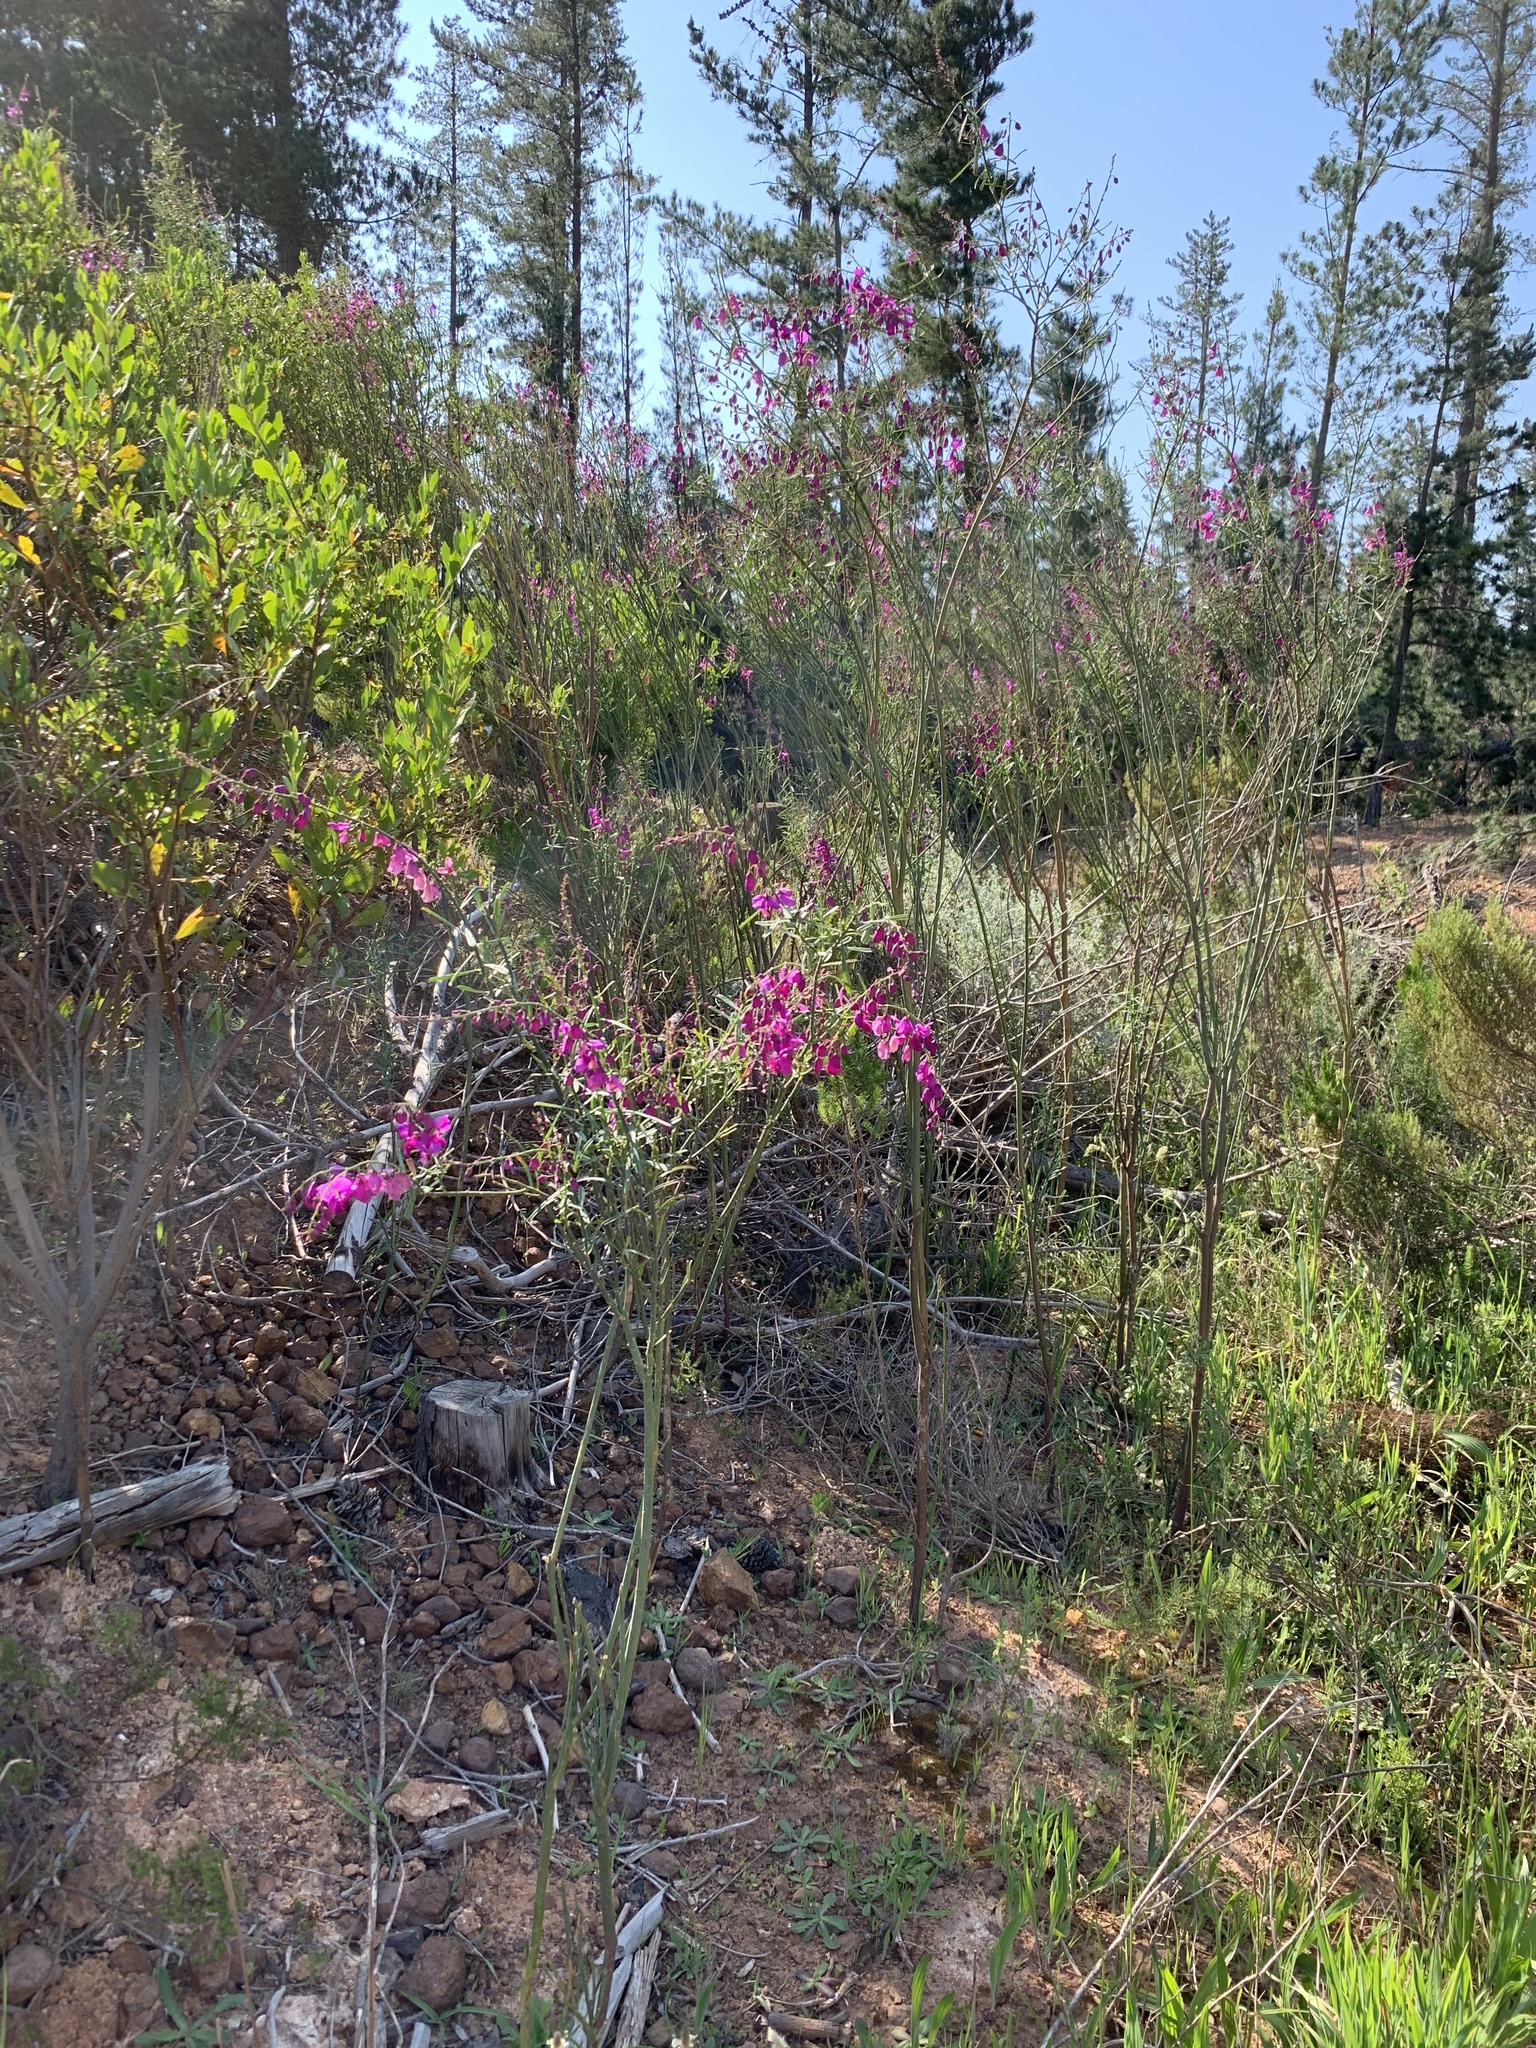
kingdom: Plantae
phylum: Tracheophyta
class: Magnoliopsida
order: Fabales
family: Polygalaceae
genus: Polygala
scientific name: Polygala virgata
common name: Milkwort
